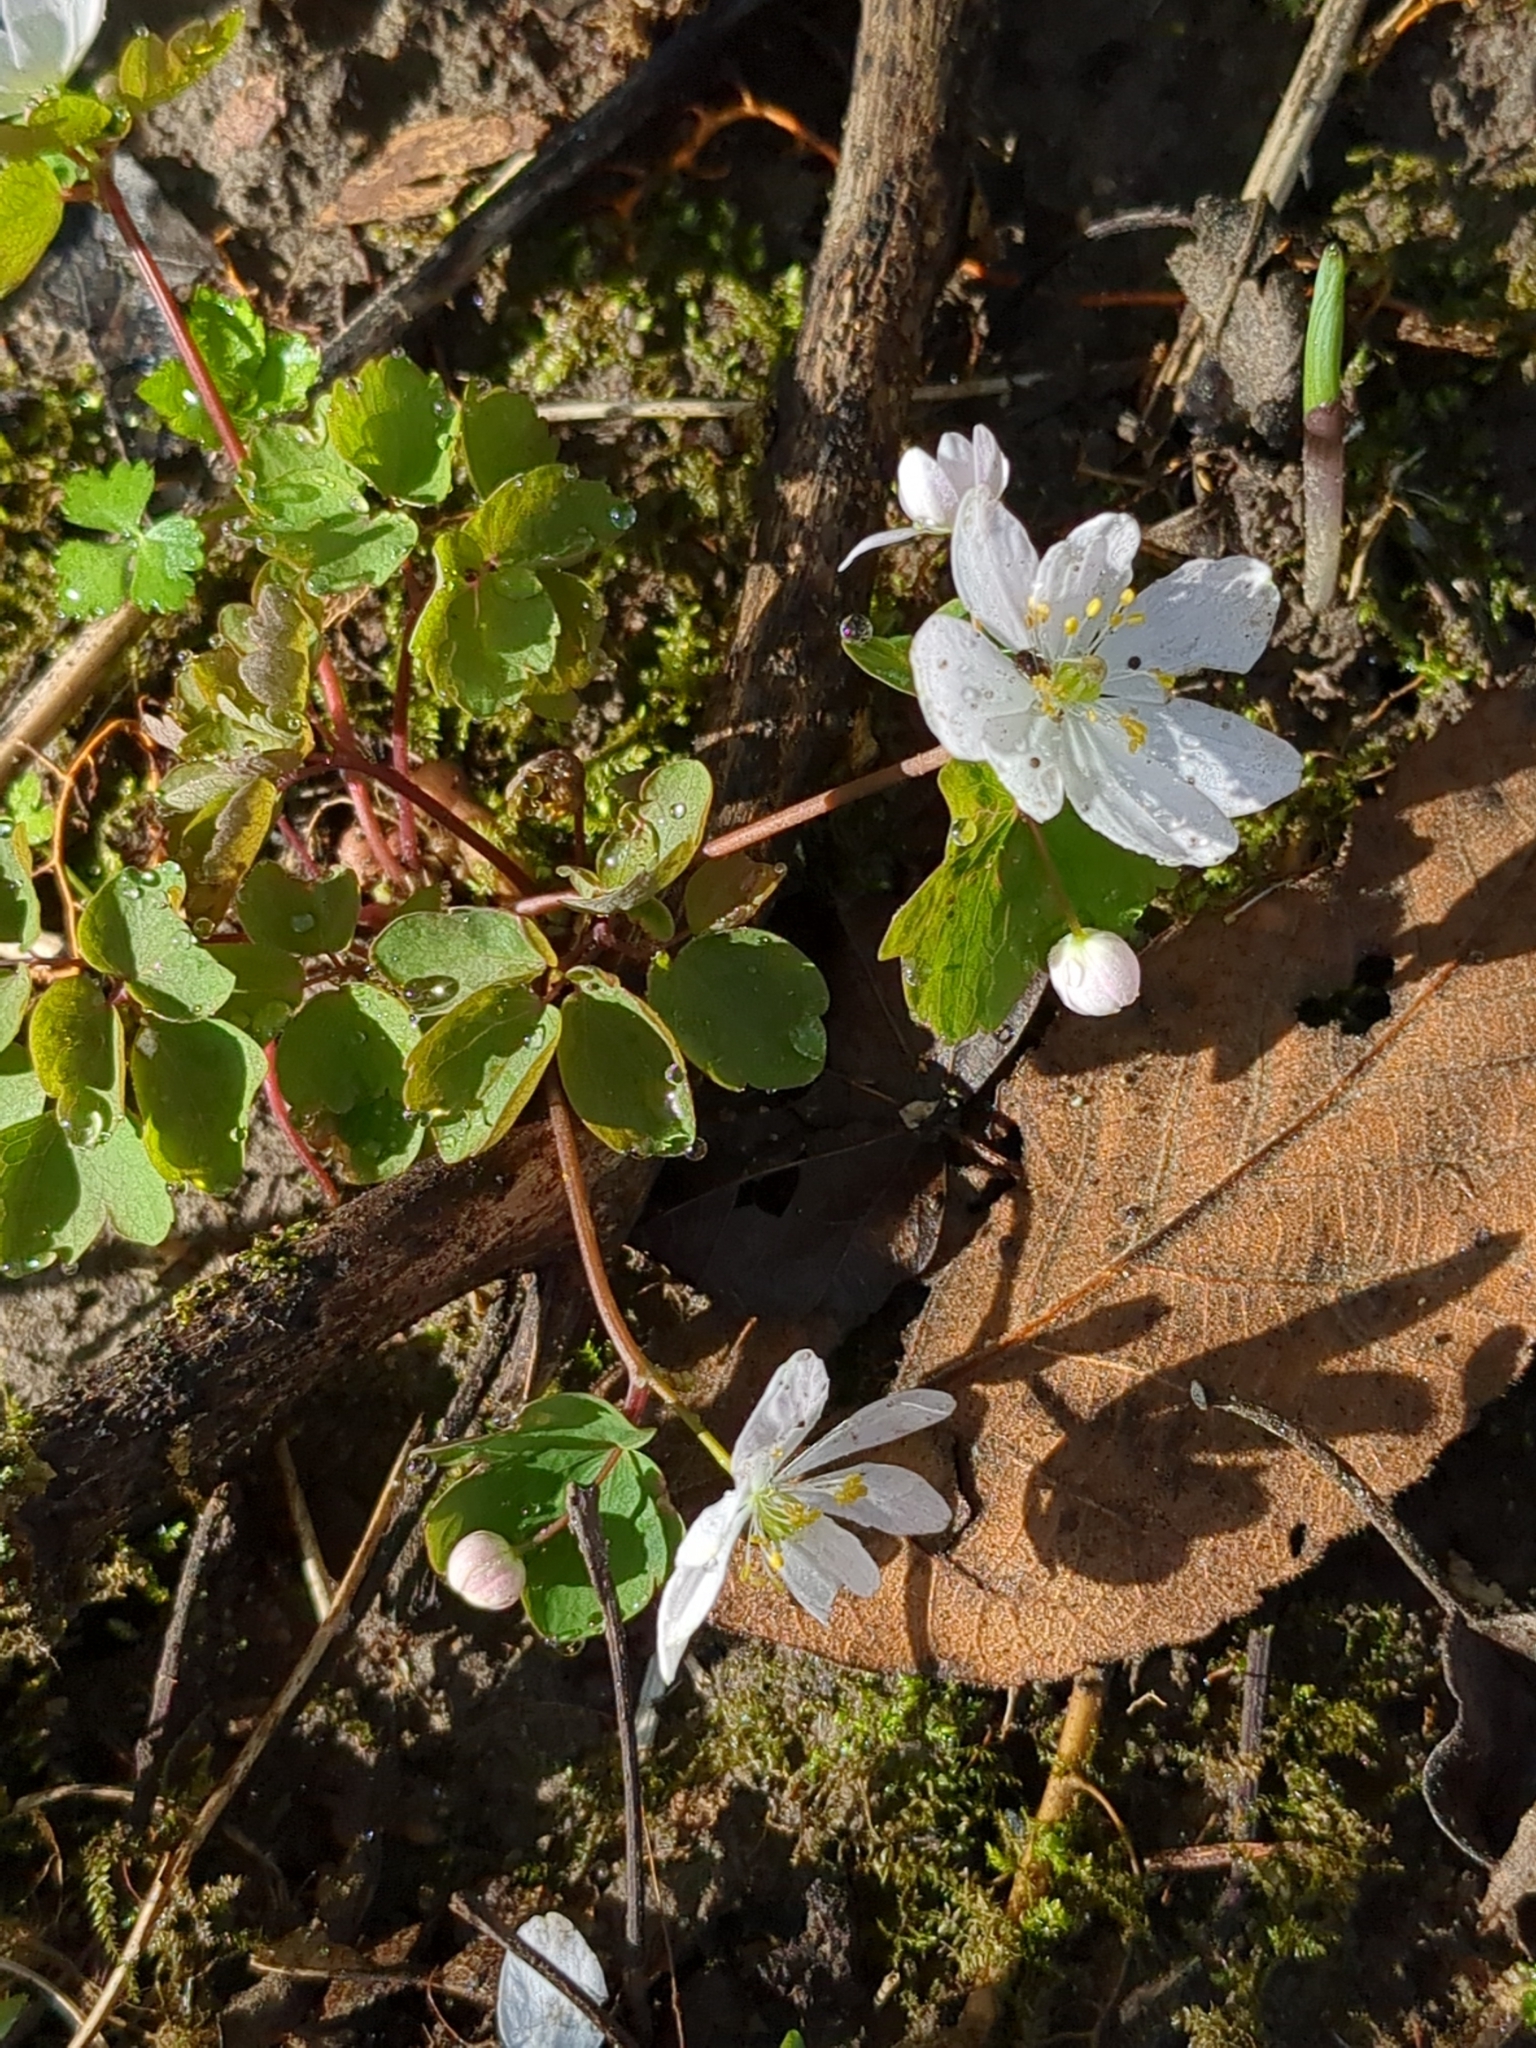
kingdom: Plantae
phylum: Tracheophyta
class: Magnoliopsida
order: Ranunculales
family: Ranunculaceae
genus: Thalictrum
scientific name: Thalictrum thalictroides
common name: Rue-anemone
